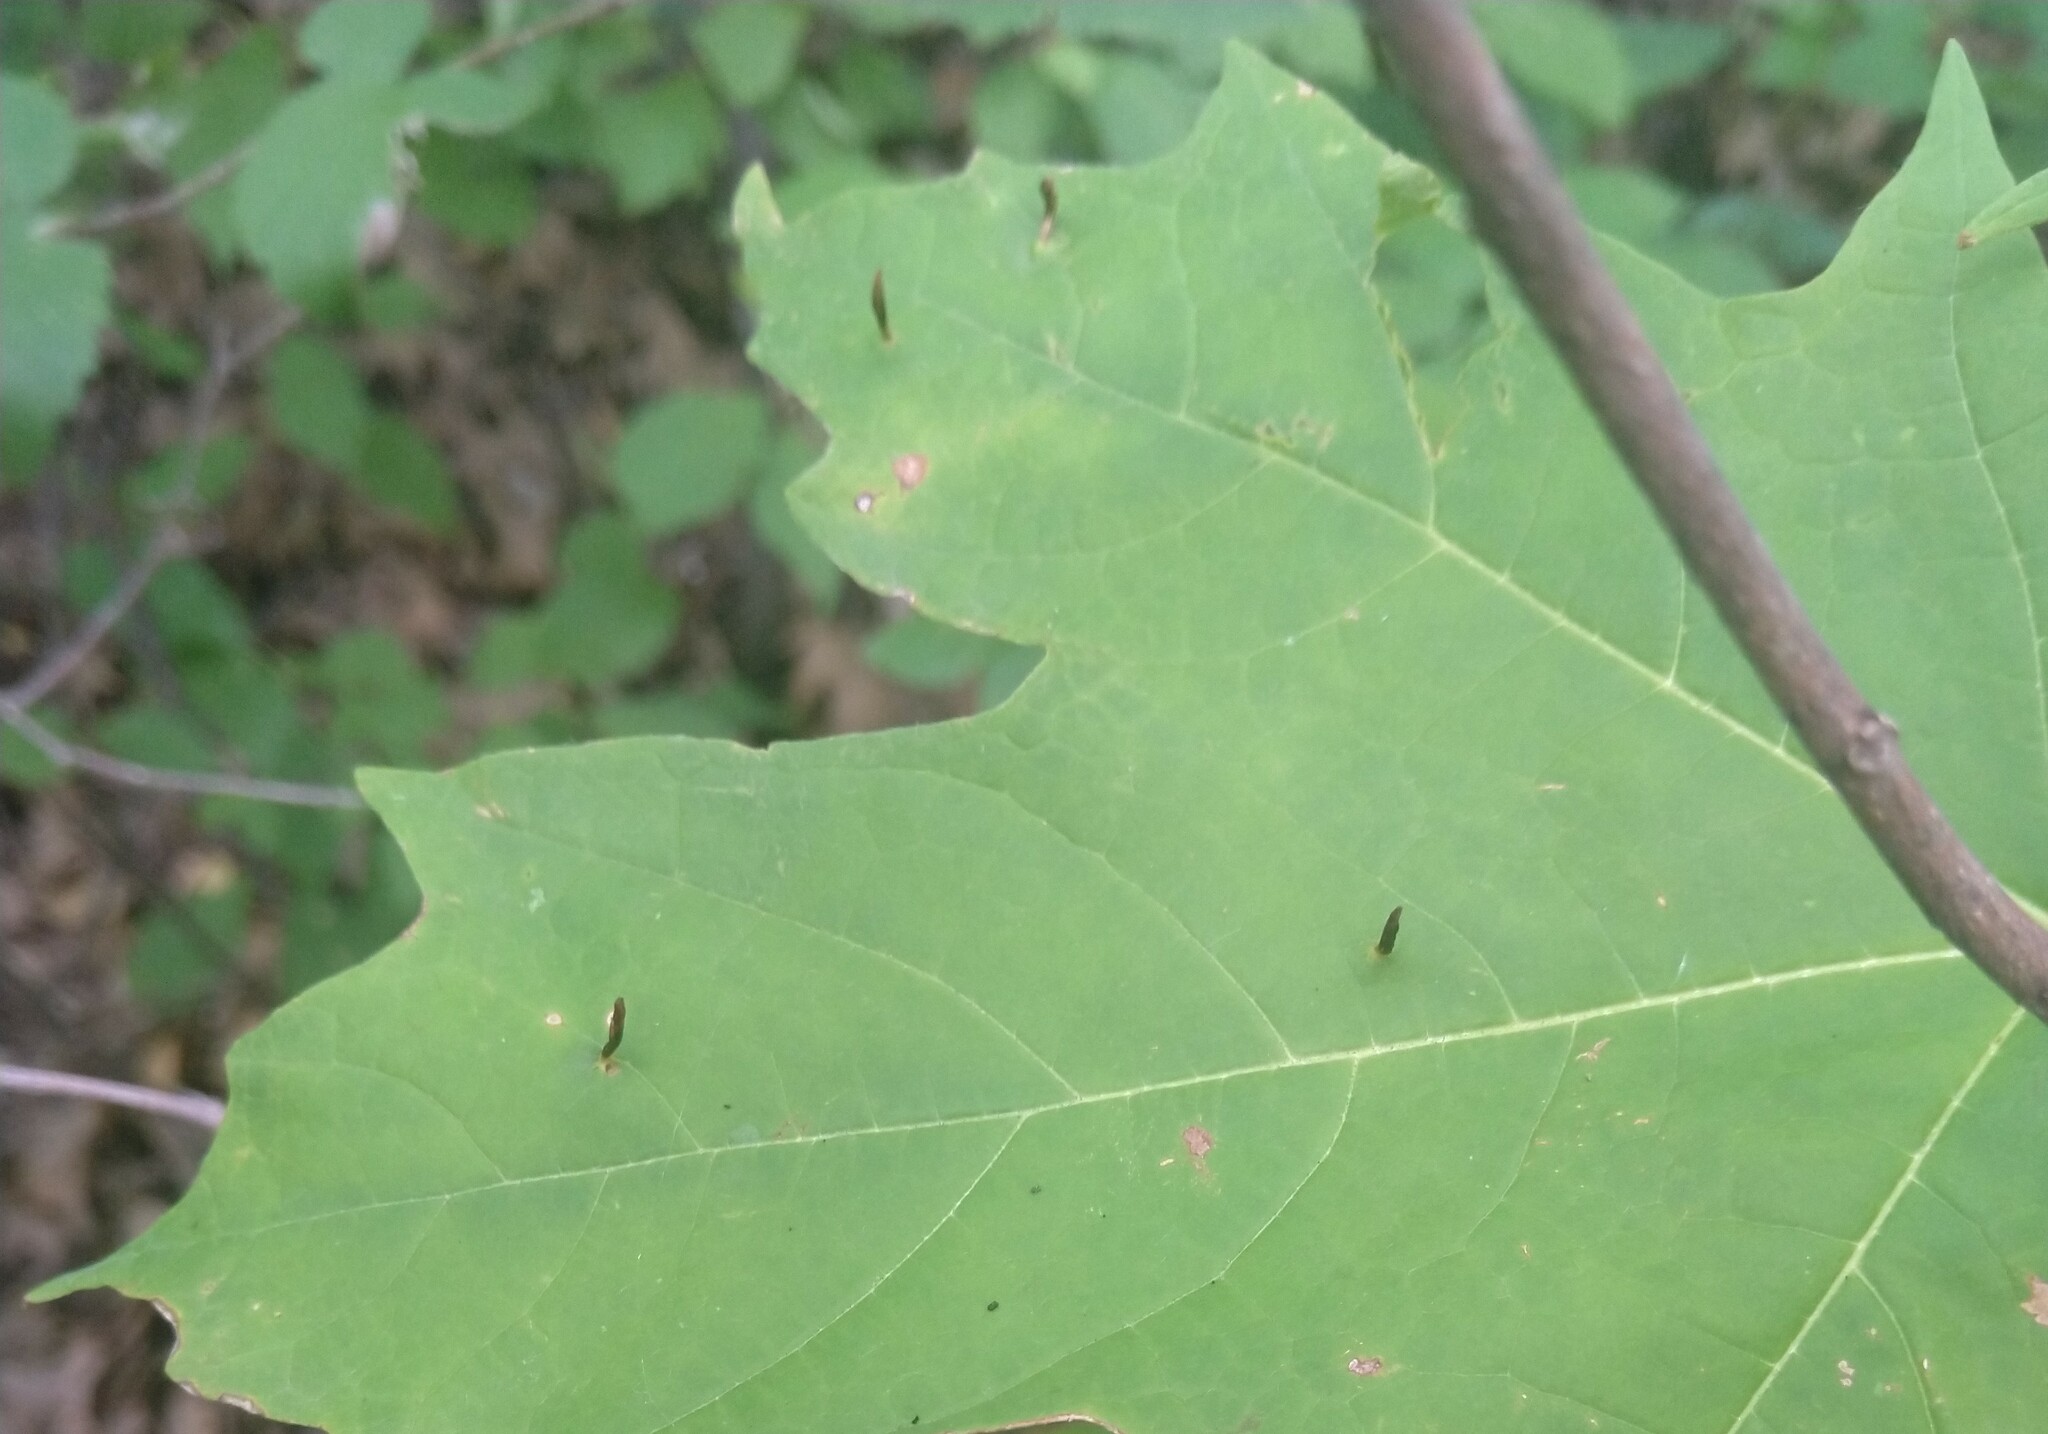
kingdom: Animalia
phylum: Arthropoda
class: Arachnida
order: Trombidiformes
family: Eriophyidae
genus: Vasates
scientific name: Vasates aceriscrumena
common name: Maple spindle gall mite
